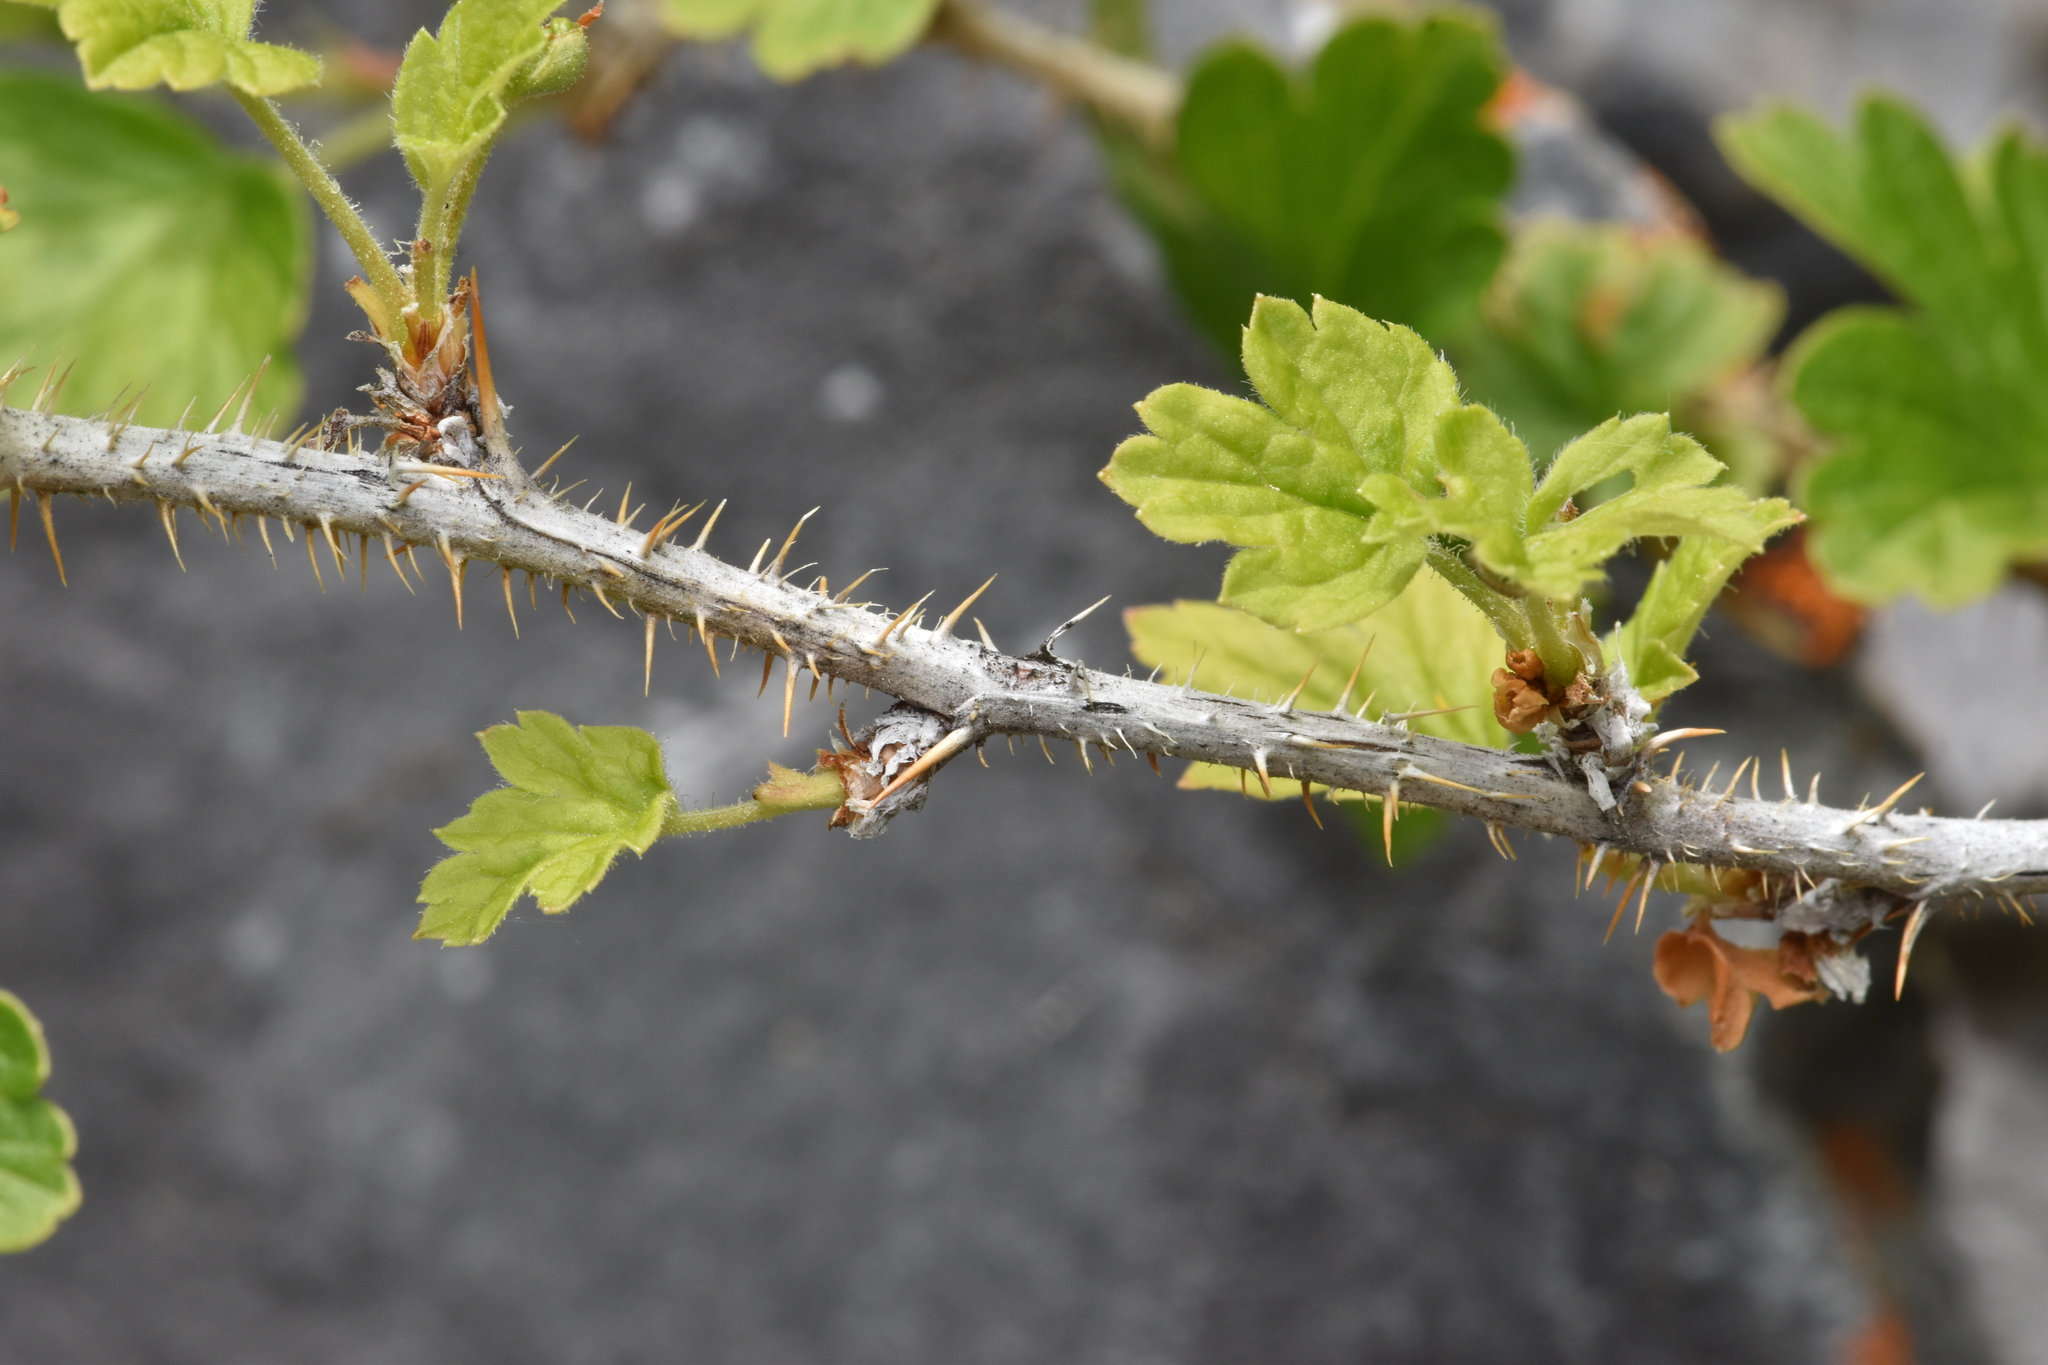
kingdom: Plantae
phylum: Tracheophyta
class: Magnoliopsida
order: Saxifragales
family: Grossulariaceae
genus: Ribes
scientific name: Ribes oxyacanthoides
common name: Northern gooseberry
